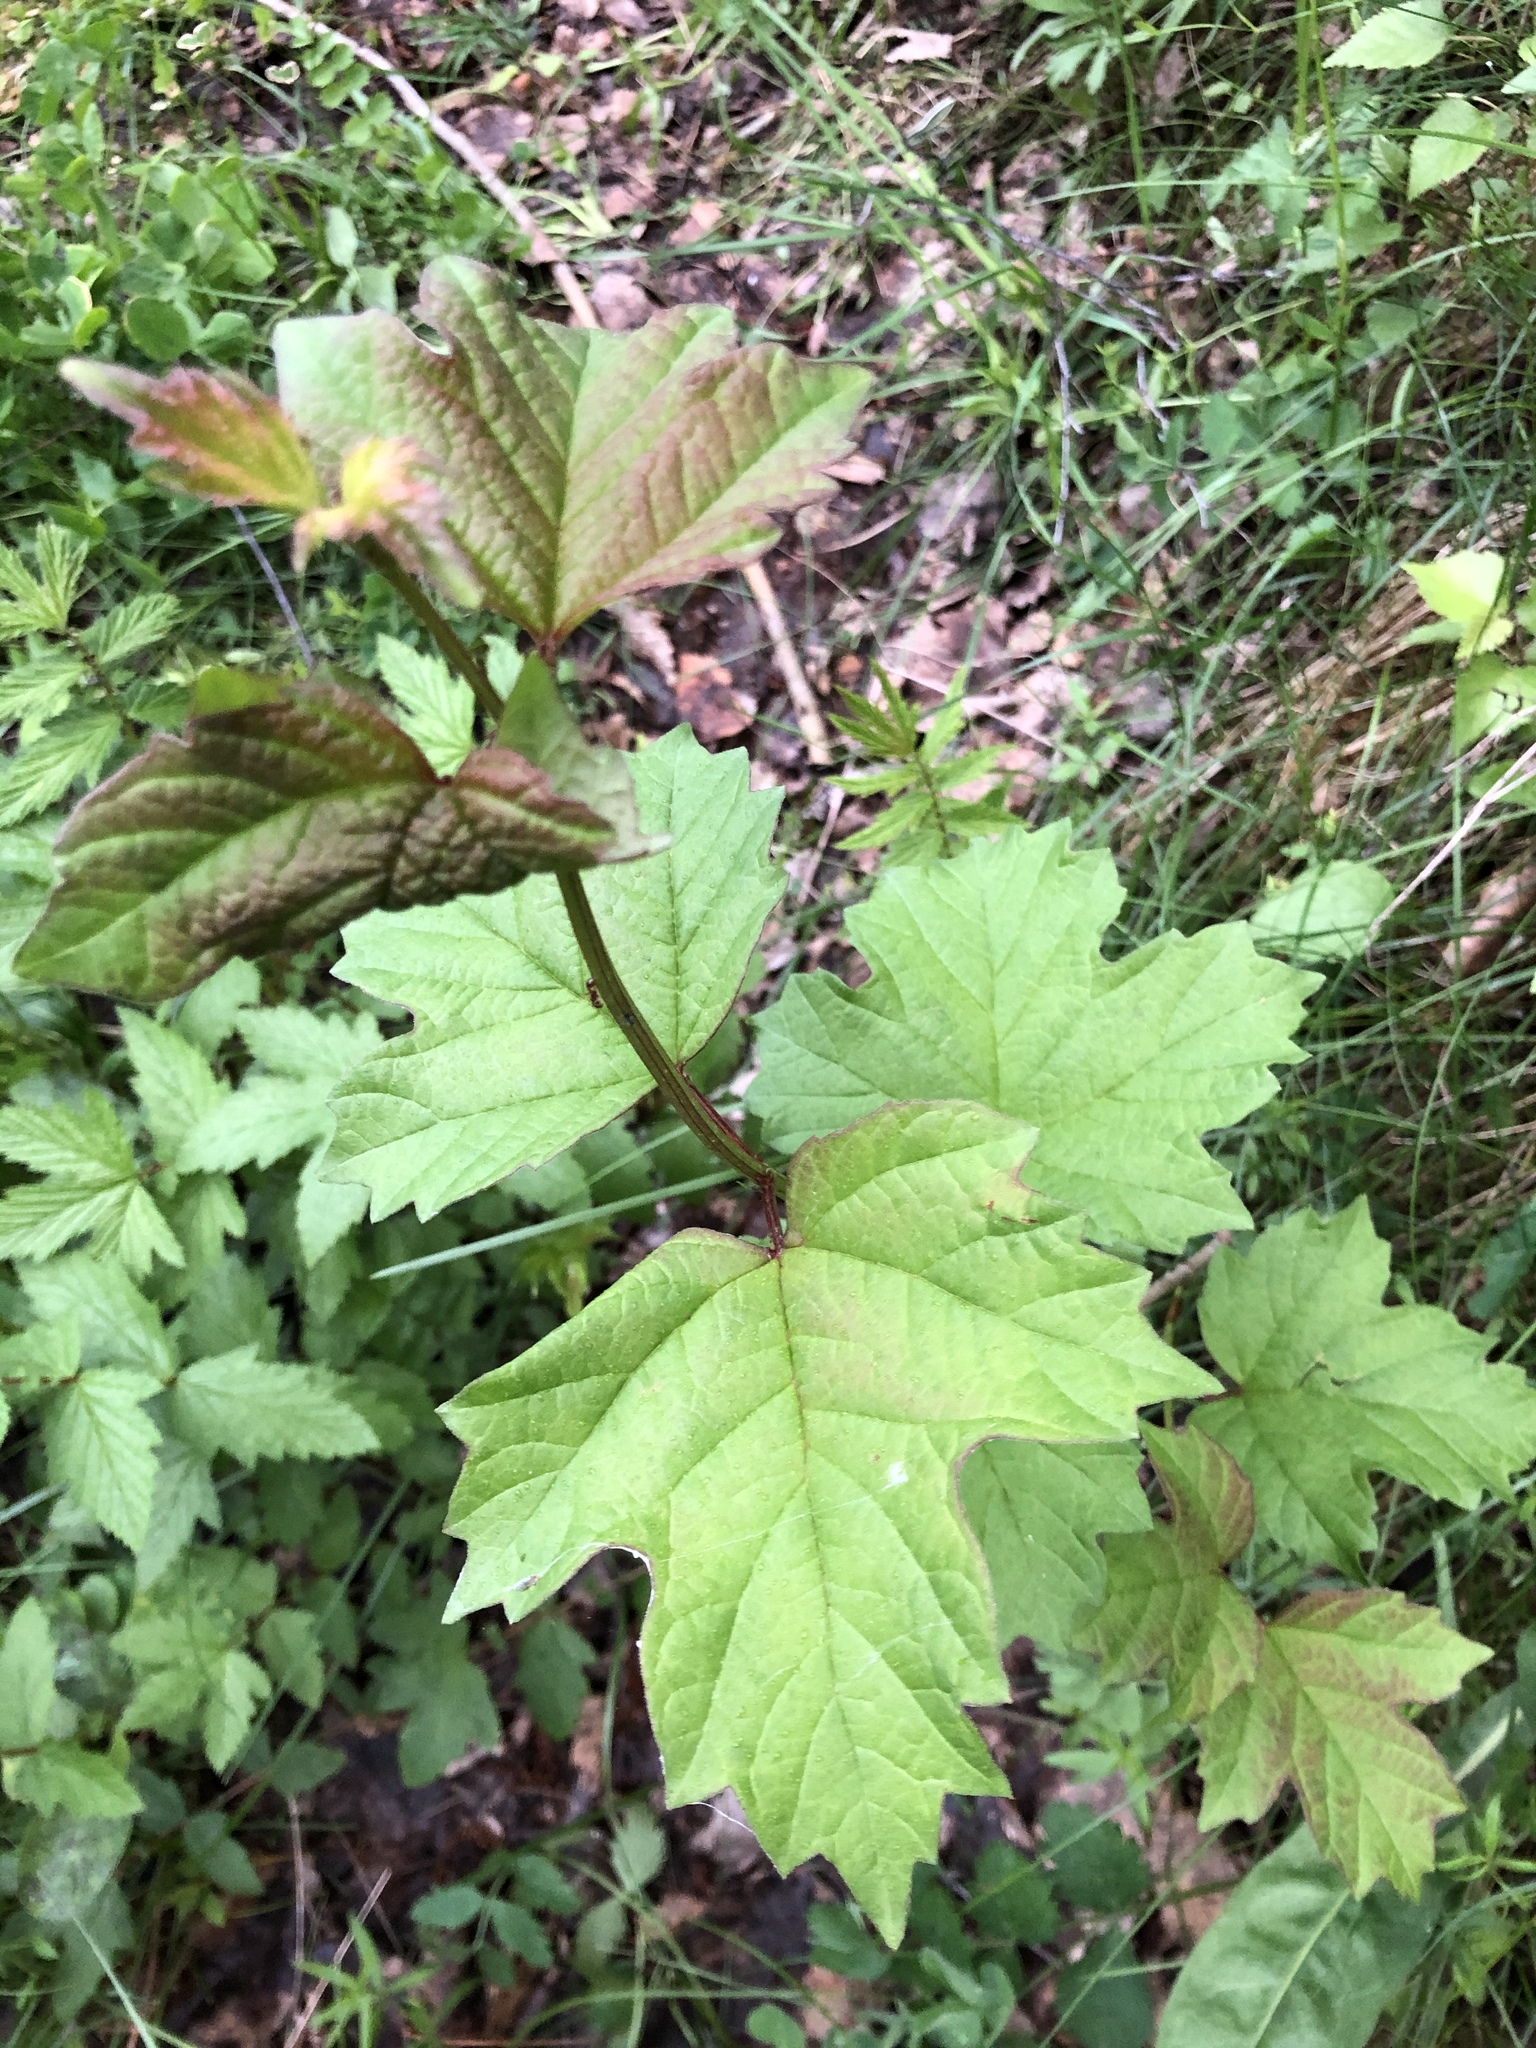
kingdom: Plantae
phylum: Tracheophyta
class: Magnoliopsida
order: Dipsacales
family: Viburnaceae
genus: Viburnum
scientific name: Viburnum opulus
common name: Guelder-rose
